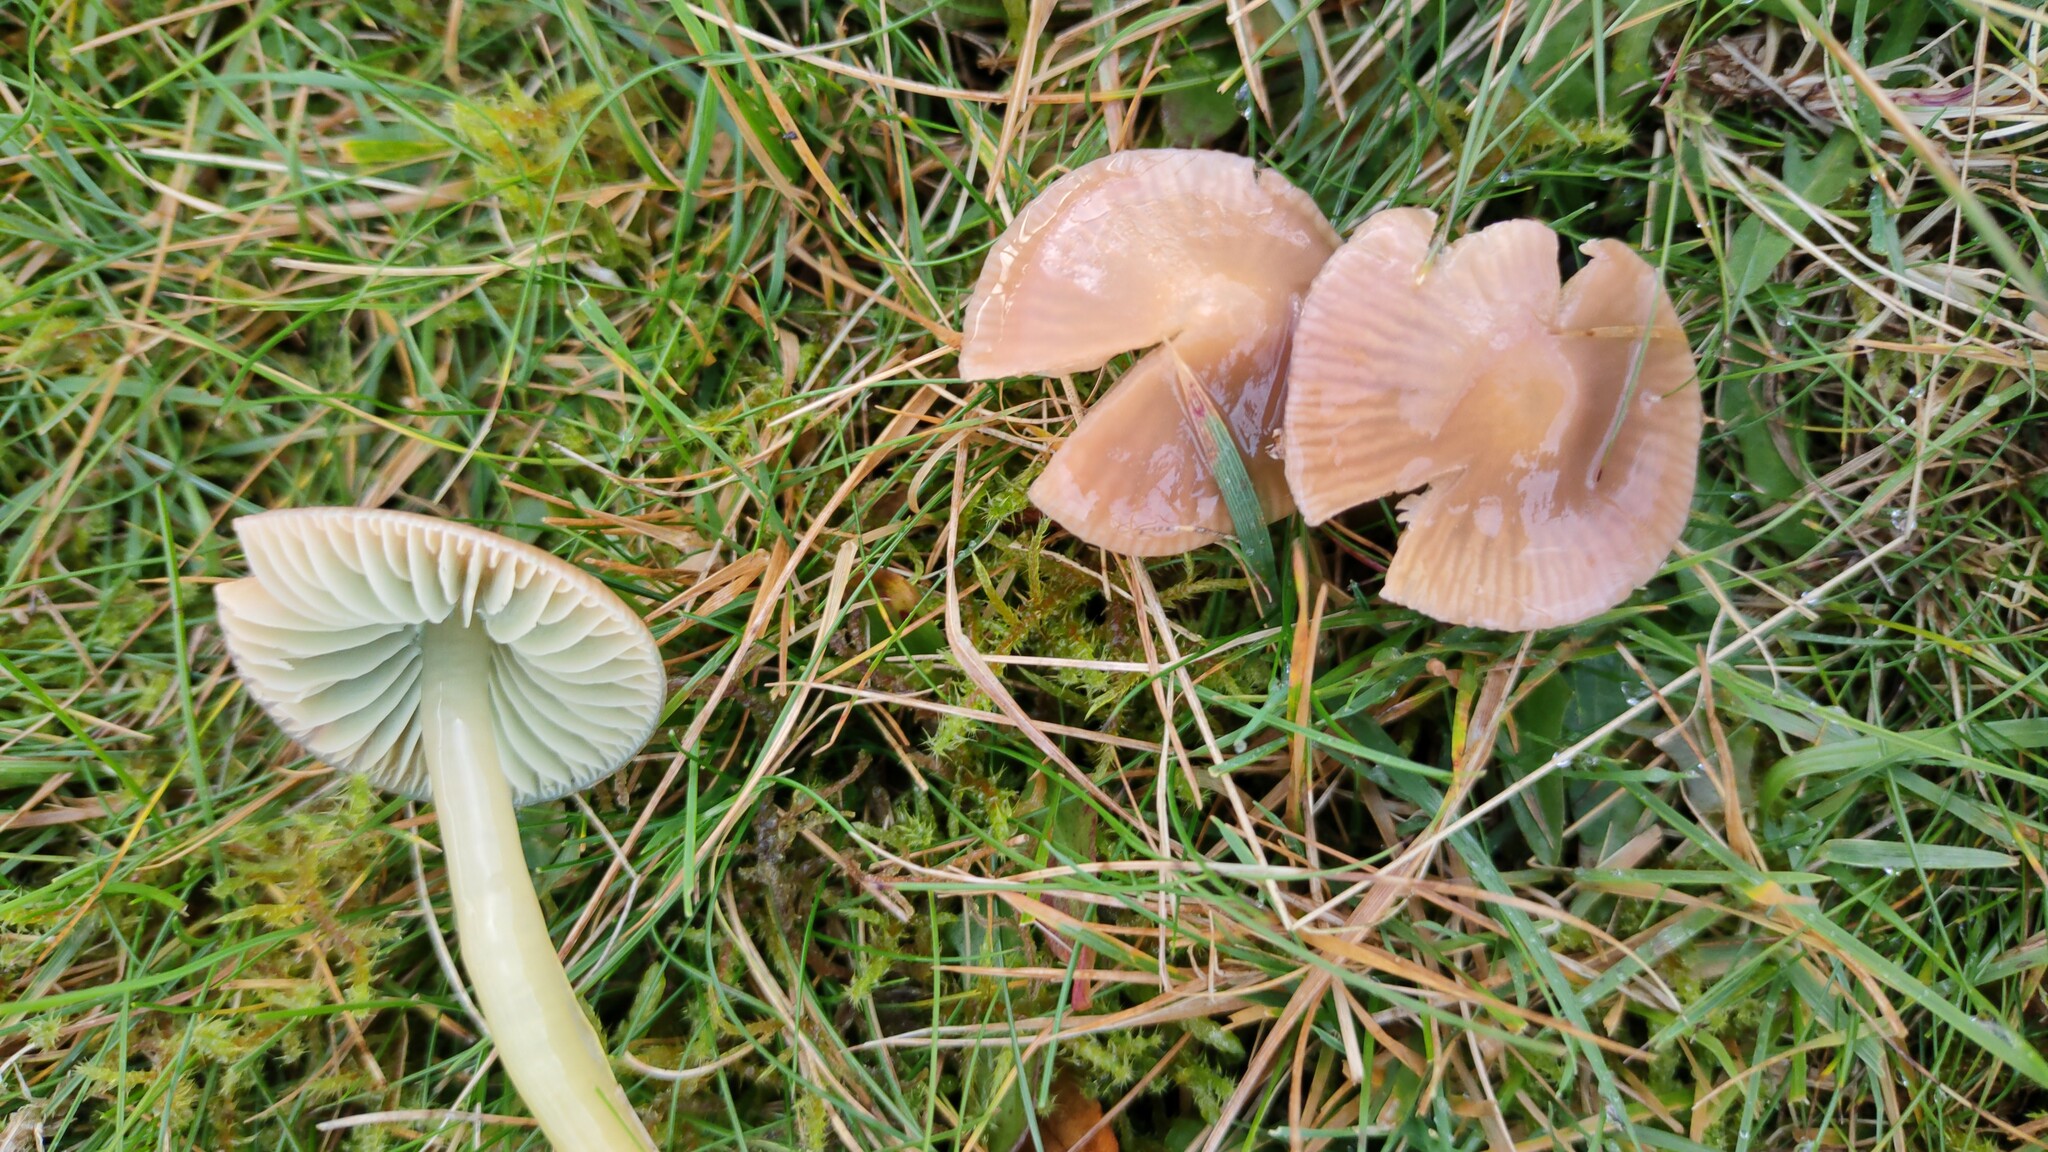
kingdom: Fungi
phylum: Basidiomycota
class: Agaricomycetes
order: Agaricales
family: Hygrophoraceae
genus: Gliophorus
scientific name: Gliophorus psittacinus
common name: Parrot wax-cap
